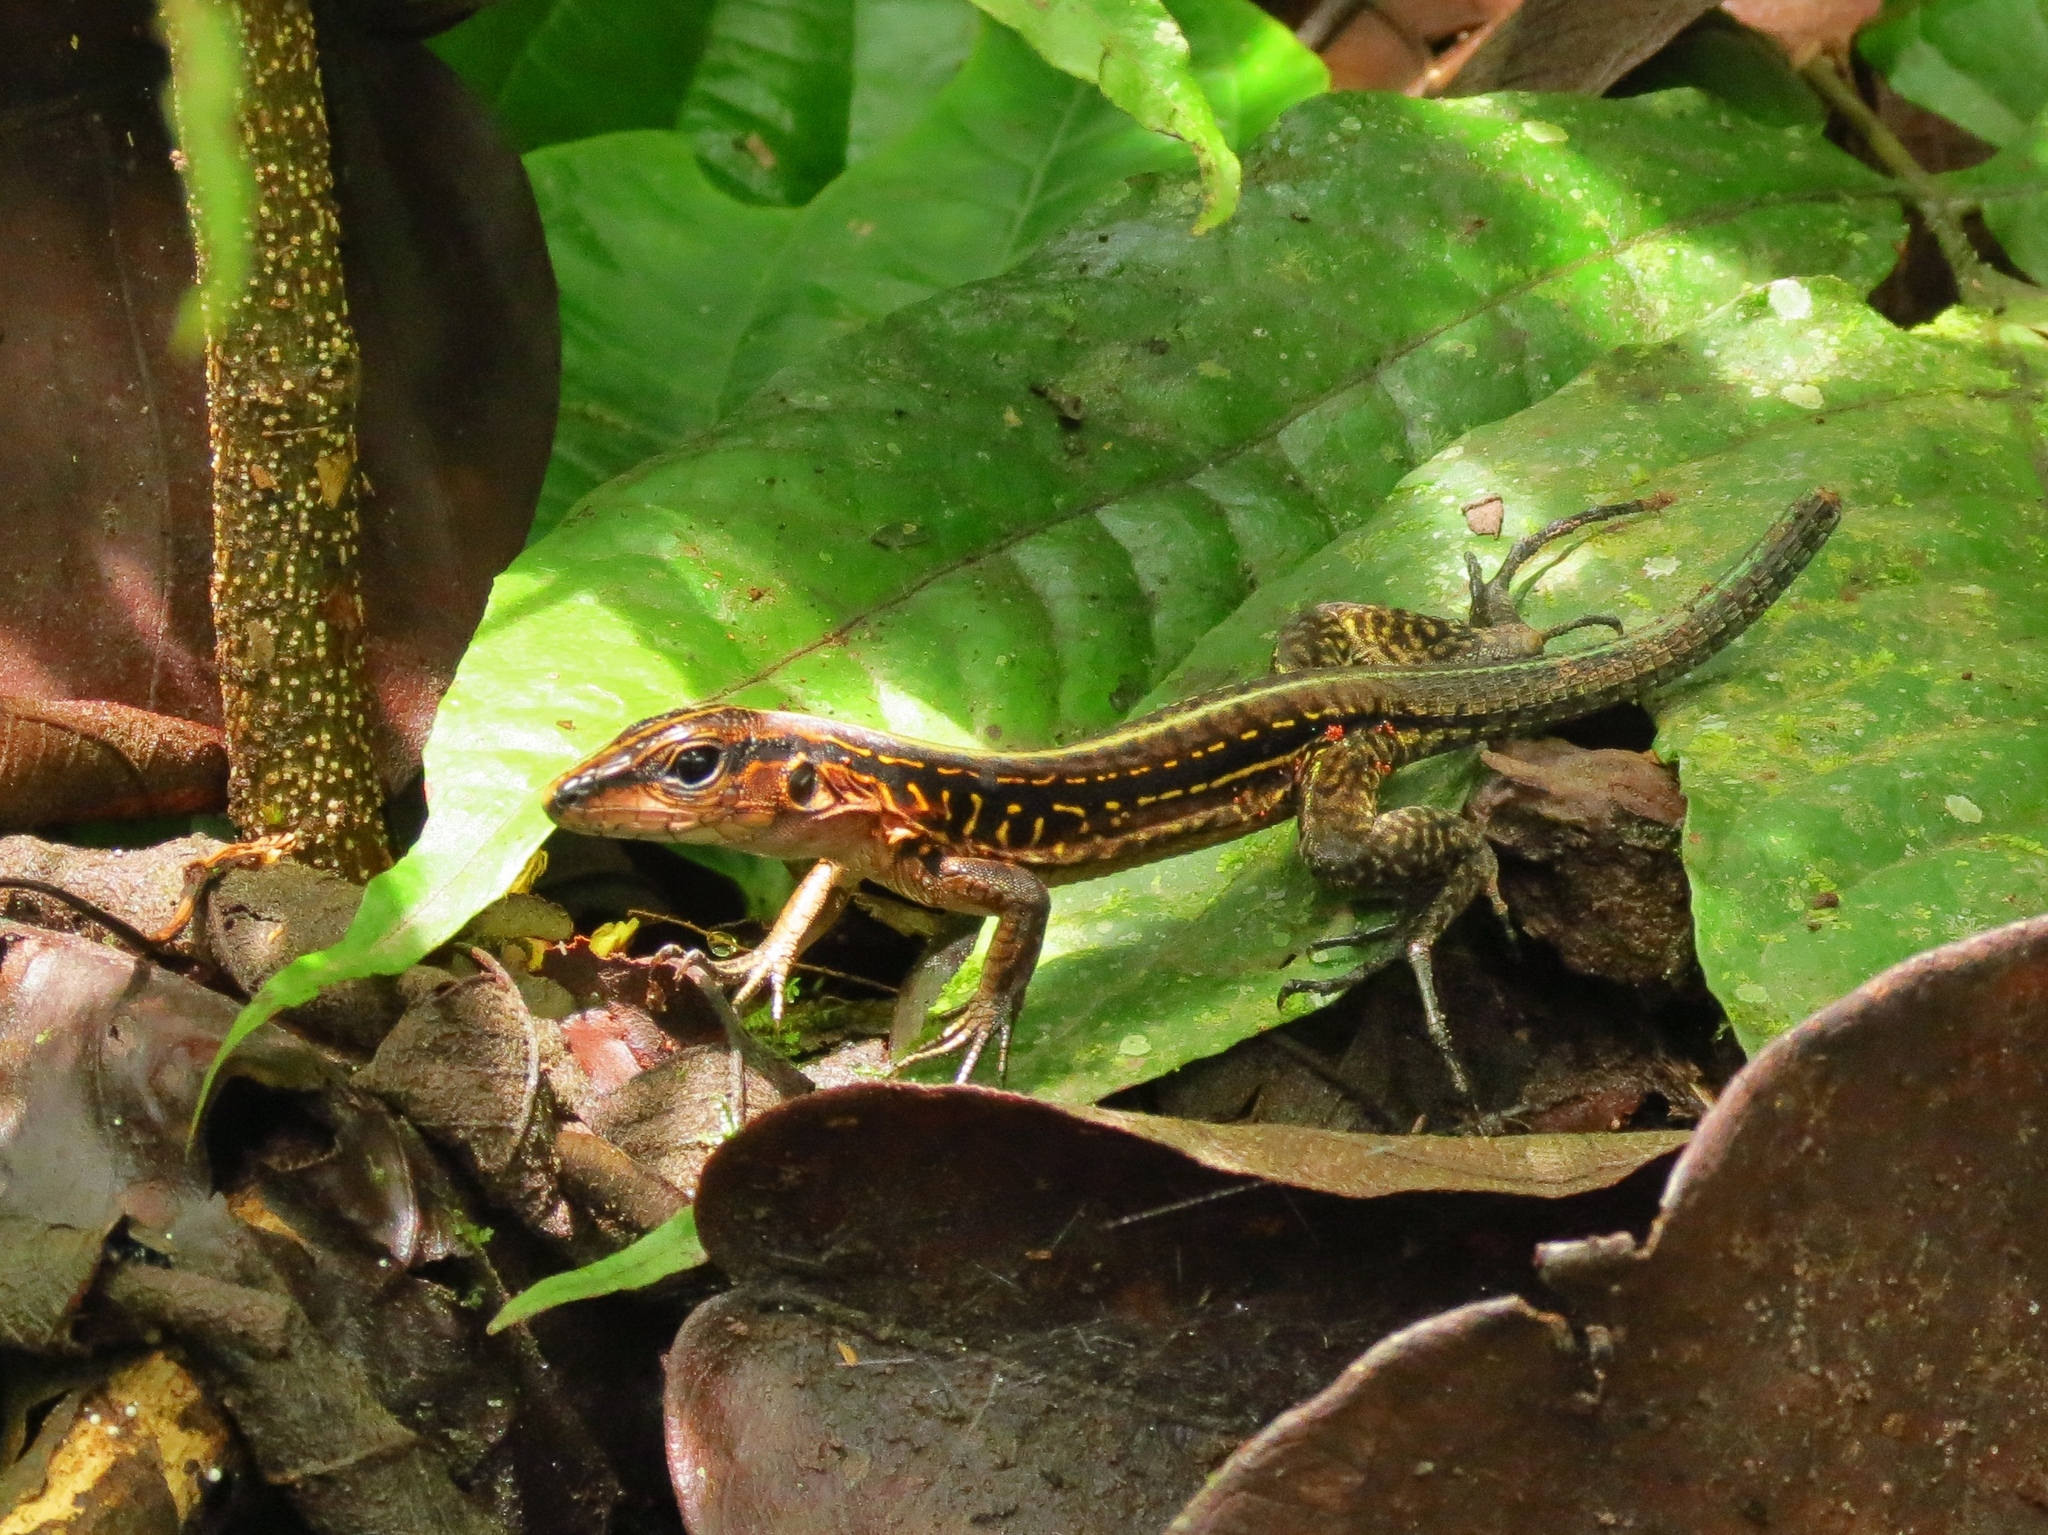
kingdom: Animalia
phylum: Chordata
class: Squamata
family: Teiidae
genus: Holcosus
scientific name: Holcosus festivus
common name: Middle american ameiva
